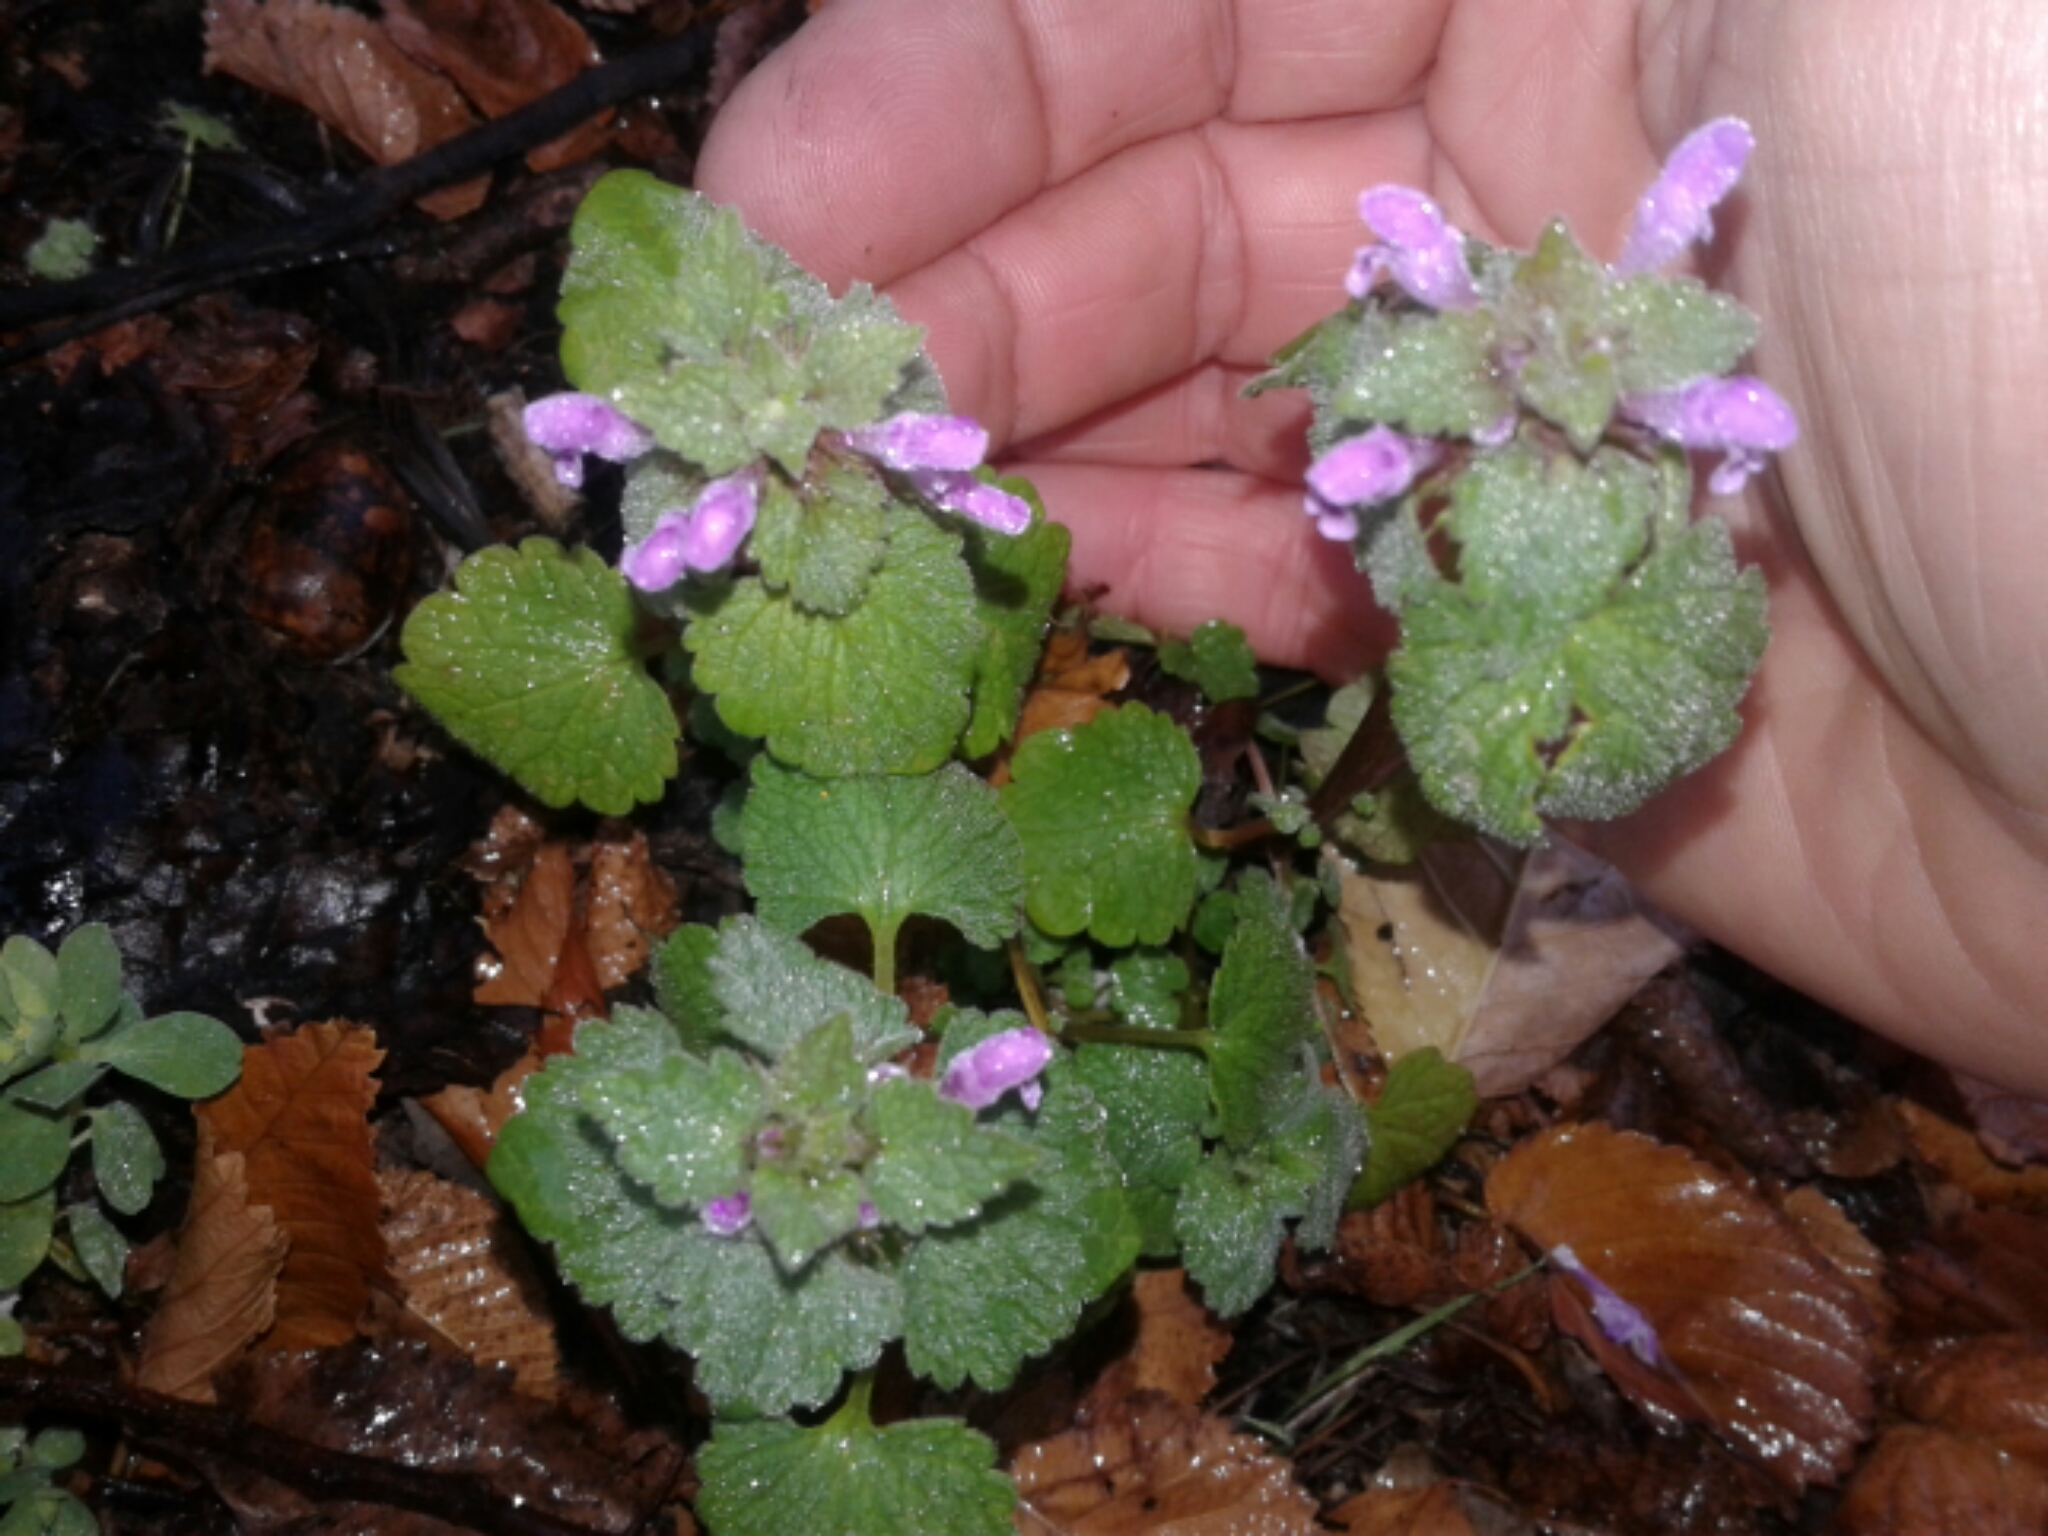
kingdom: Plantae
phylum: Tracheophyta
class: Magnoliopsida
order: Lamiales
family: Lamiaceae
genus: Lamium
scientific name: Lamium purpureum
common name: Red dead-nettle
